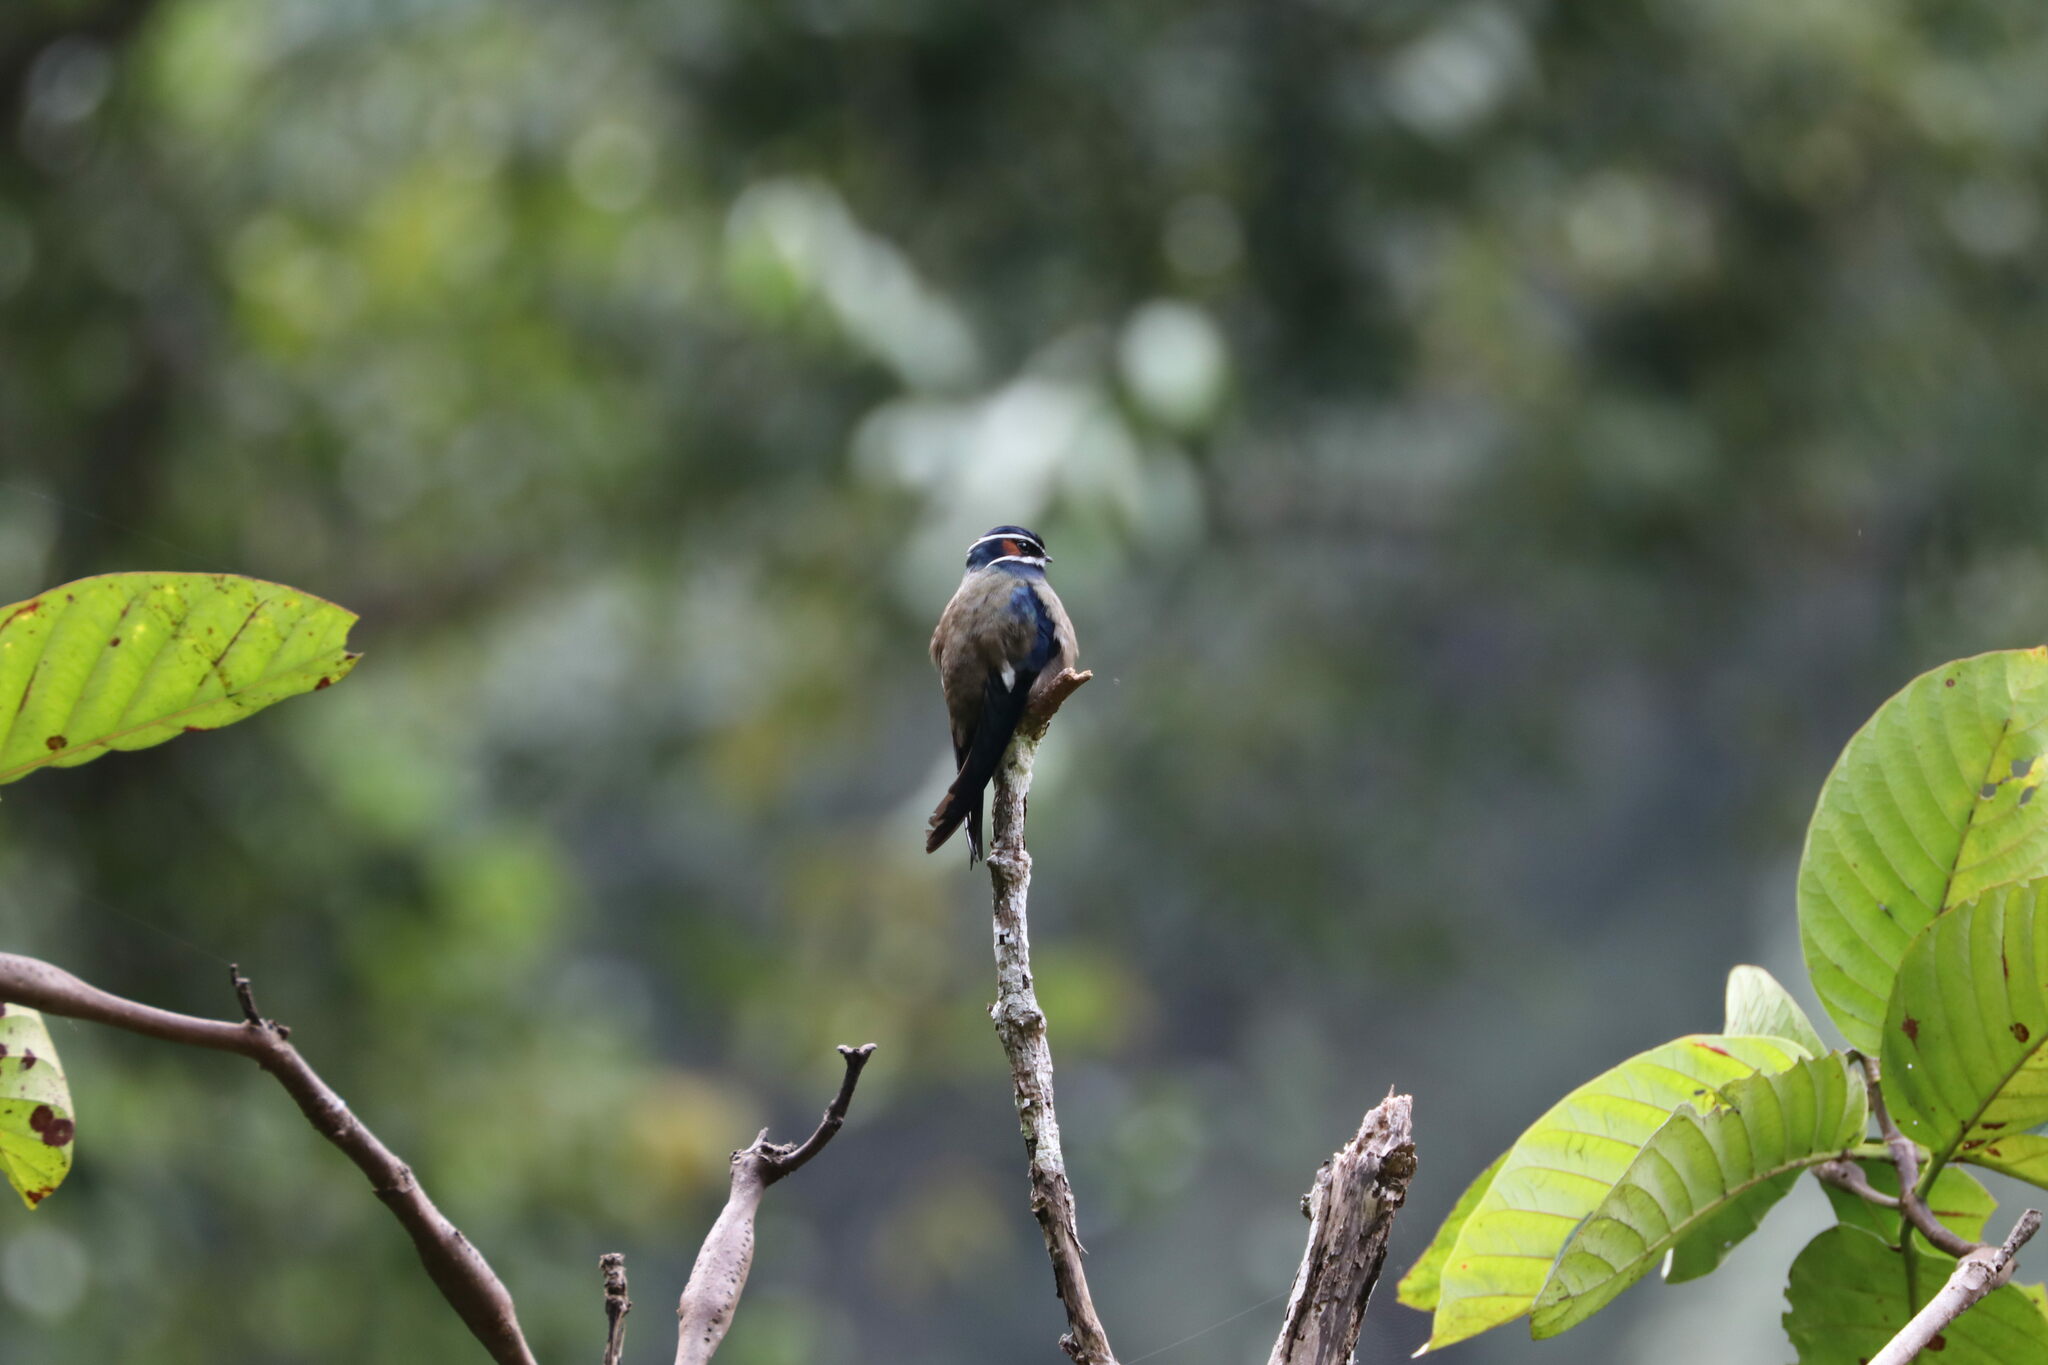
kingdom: Animalia
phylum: Chordata
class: Aves
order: Apodiformes
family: Hemiprocnidae
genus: Hemiprocne
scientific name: Hemiprocne comata
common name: Whiskered treeswift
